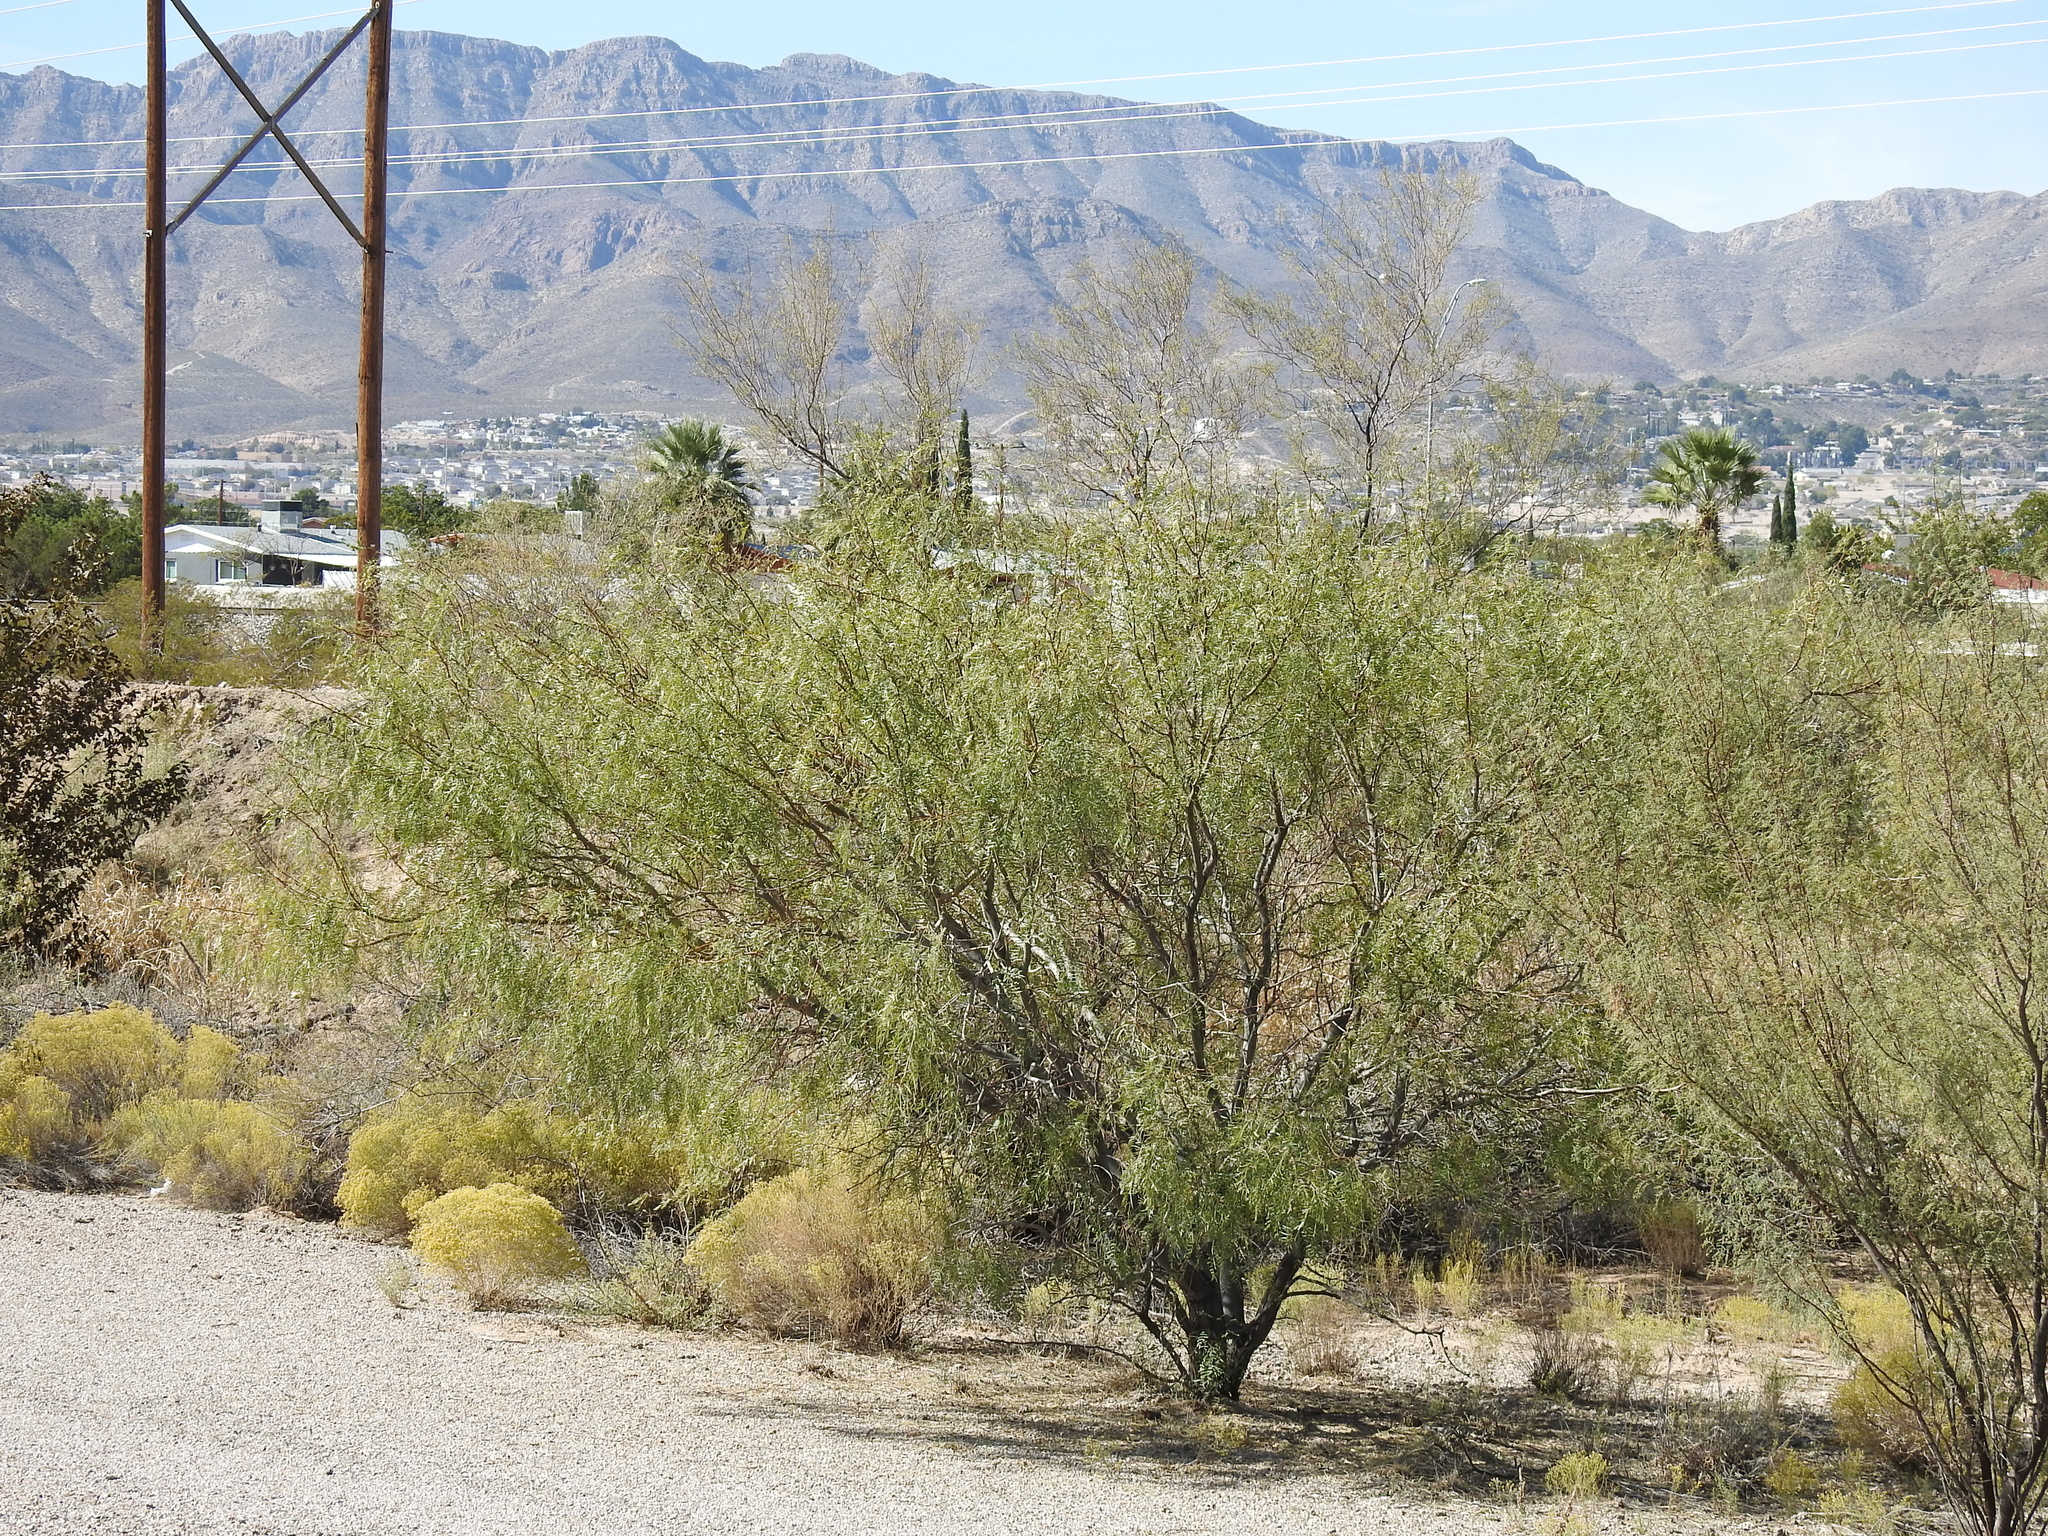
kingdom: Plantae
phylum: Tracheophyta
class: Magnoliopsida
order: Fabales
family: Fabaceae
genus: Prosopis
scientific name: Prosopis glandulosa
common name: Honey mesquite
